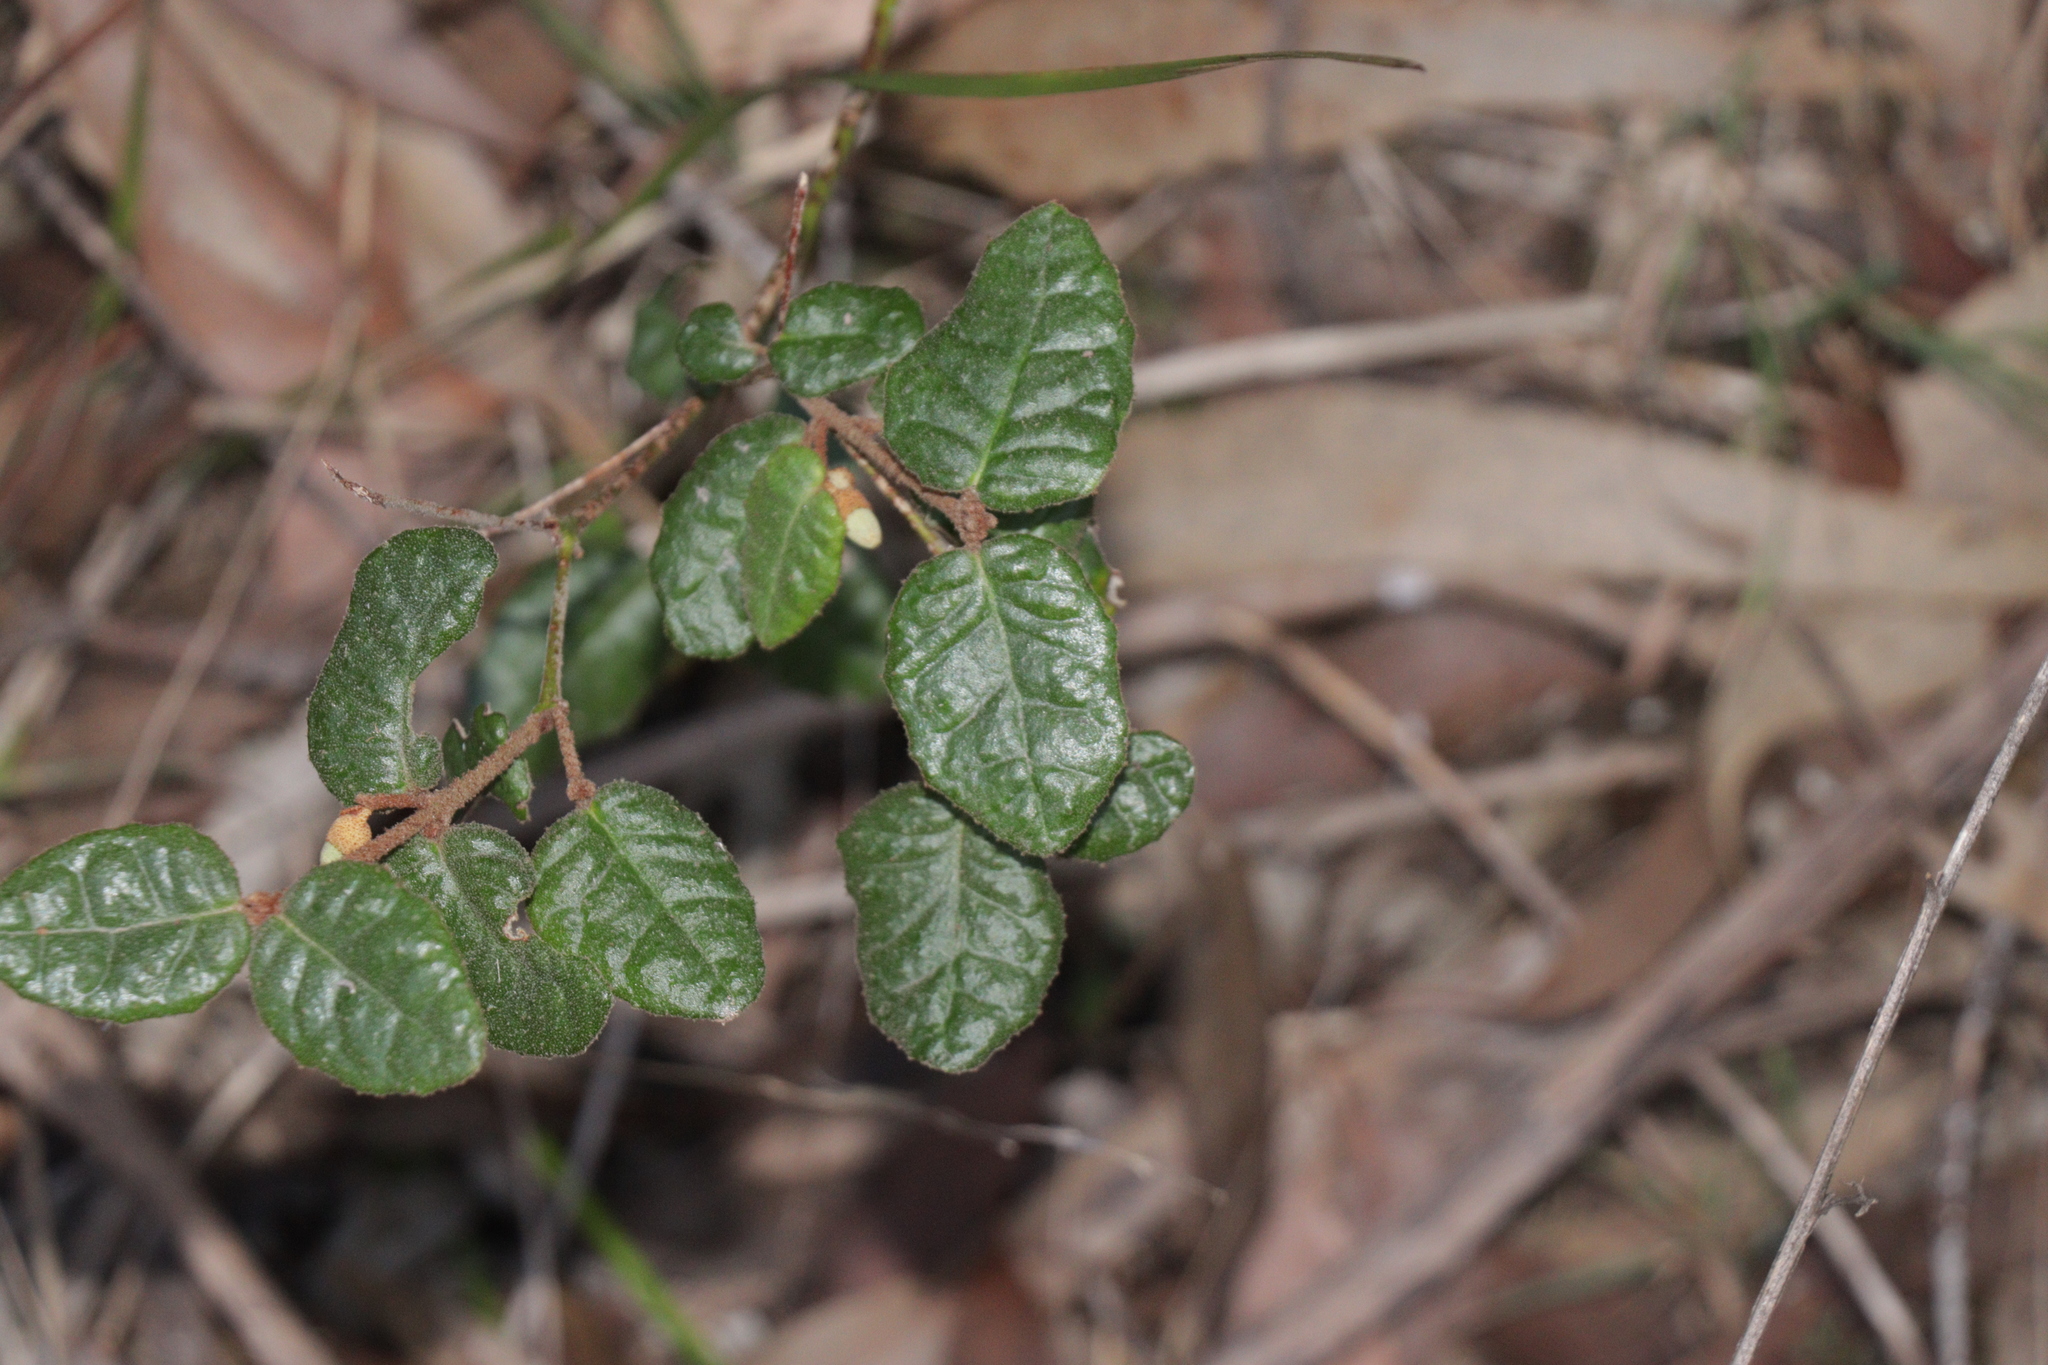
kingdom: Plantae
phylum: Tracheophyta
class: Magnoliopsida
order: Sapindales
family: Rutaceae
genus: Correa
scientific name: Correa reflexa
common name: Common correa
